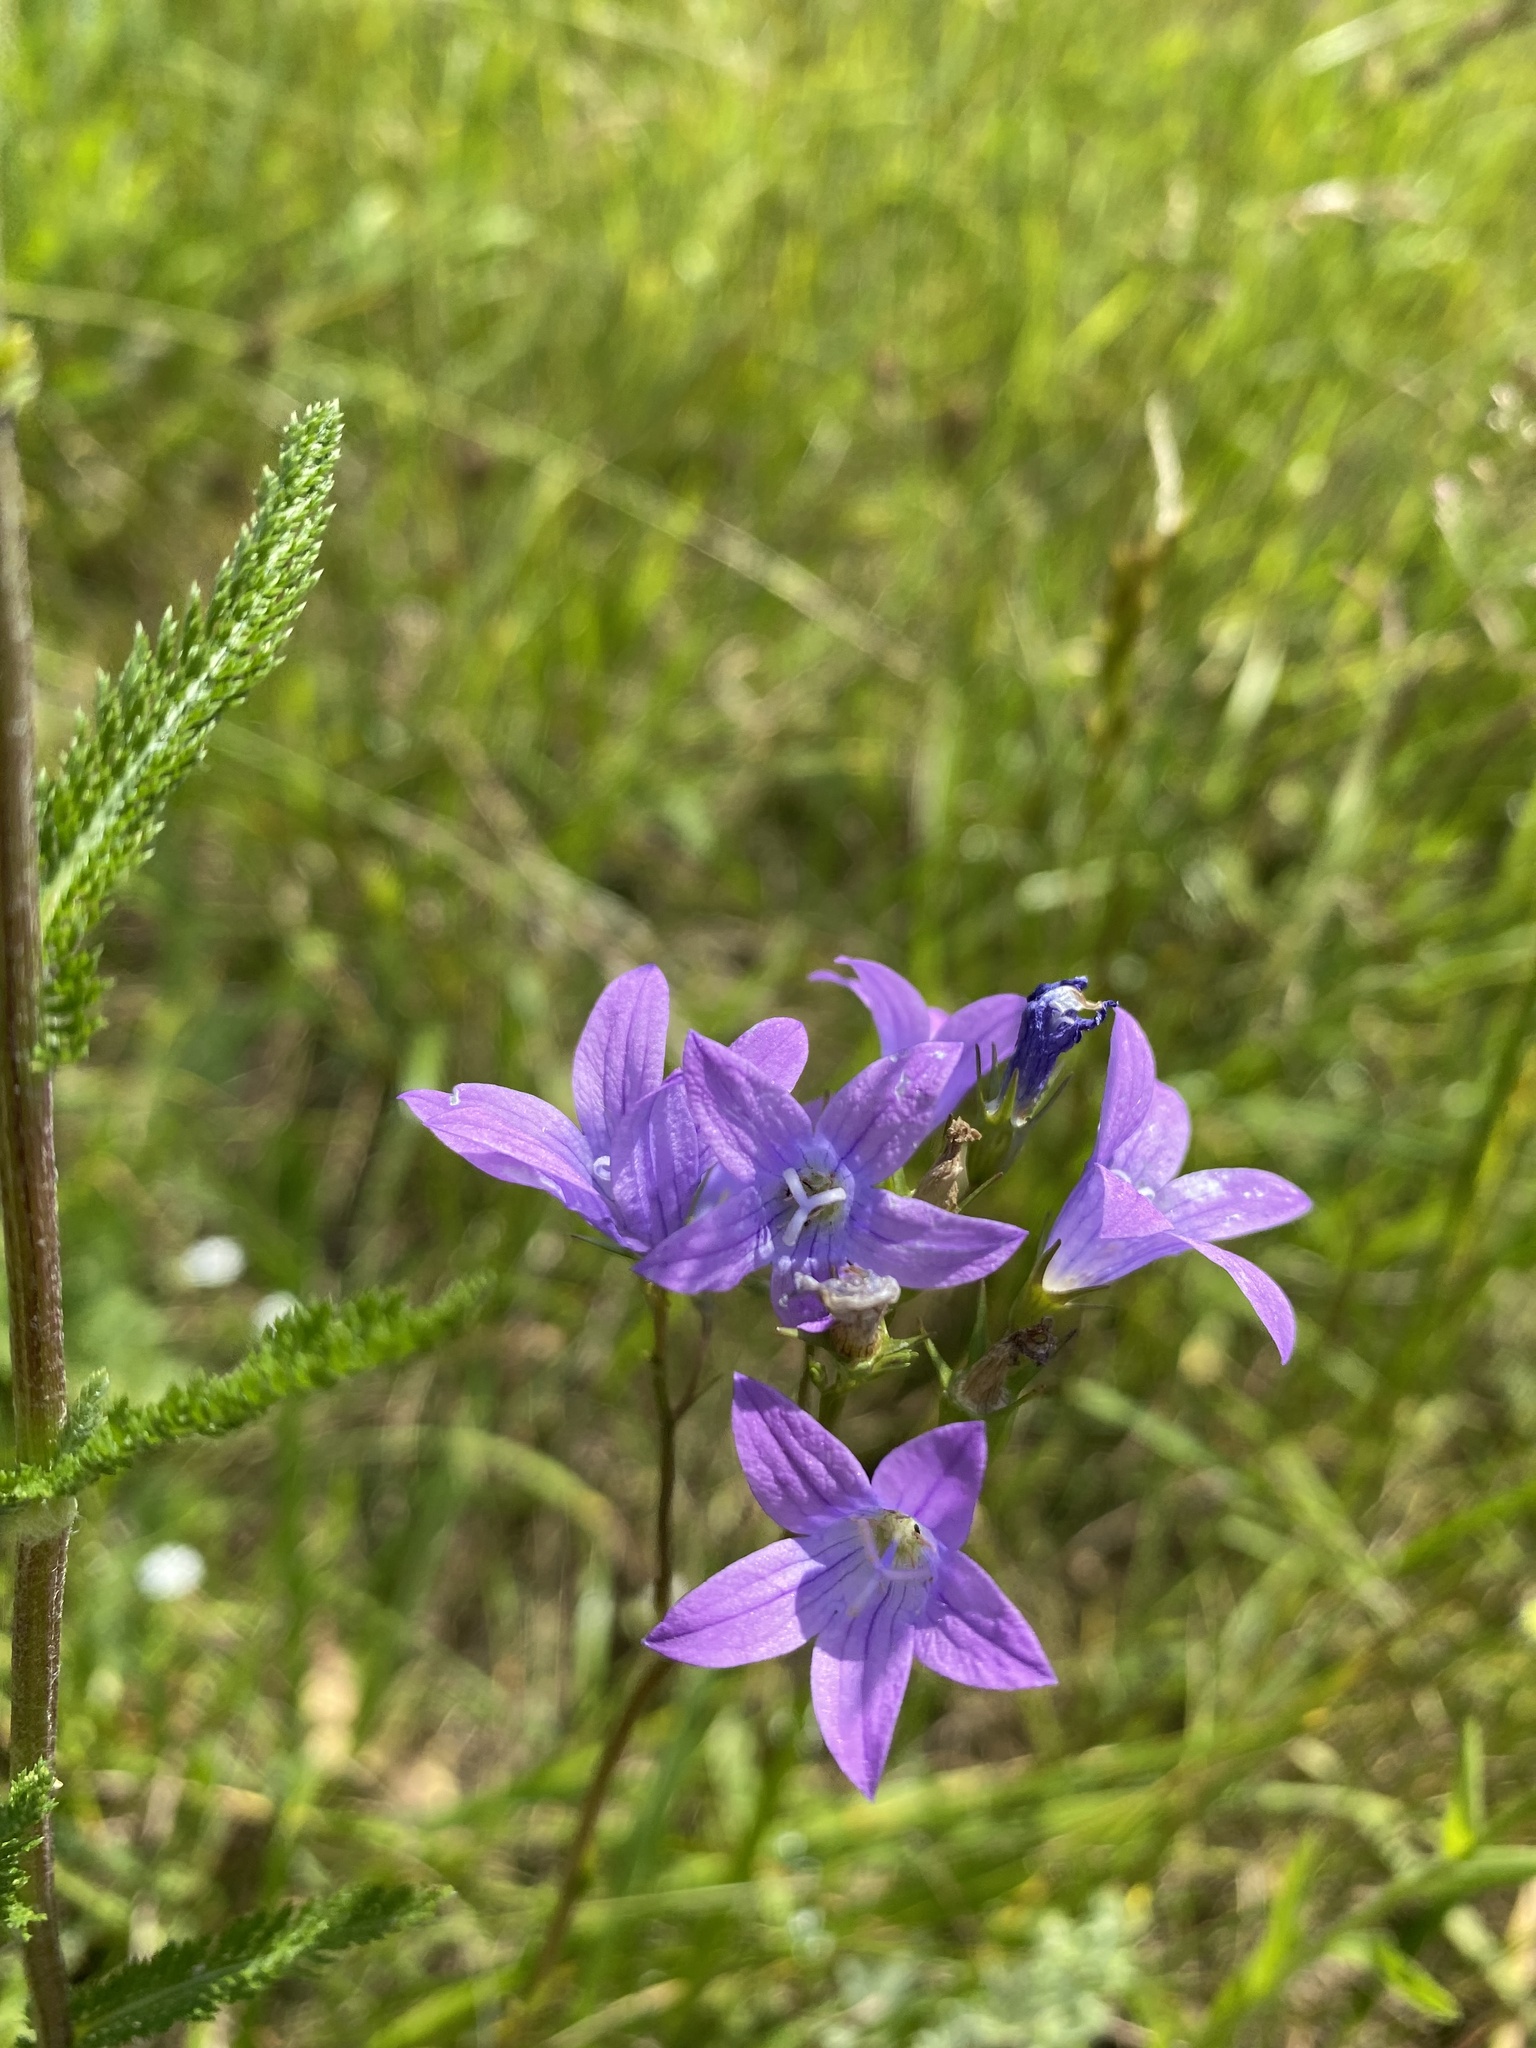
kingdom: Plantae
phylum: Tracheophyta
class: Magnoliopsida
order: Asterales
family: Campanulaceae
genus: Campanula
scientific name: Campanula patula
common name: Spreading bellflower
